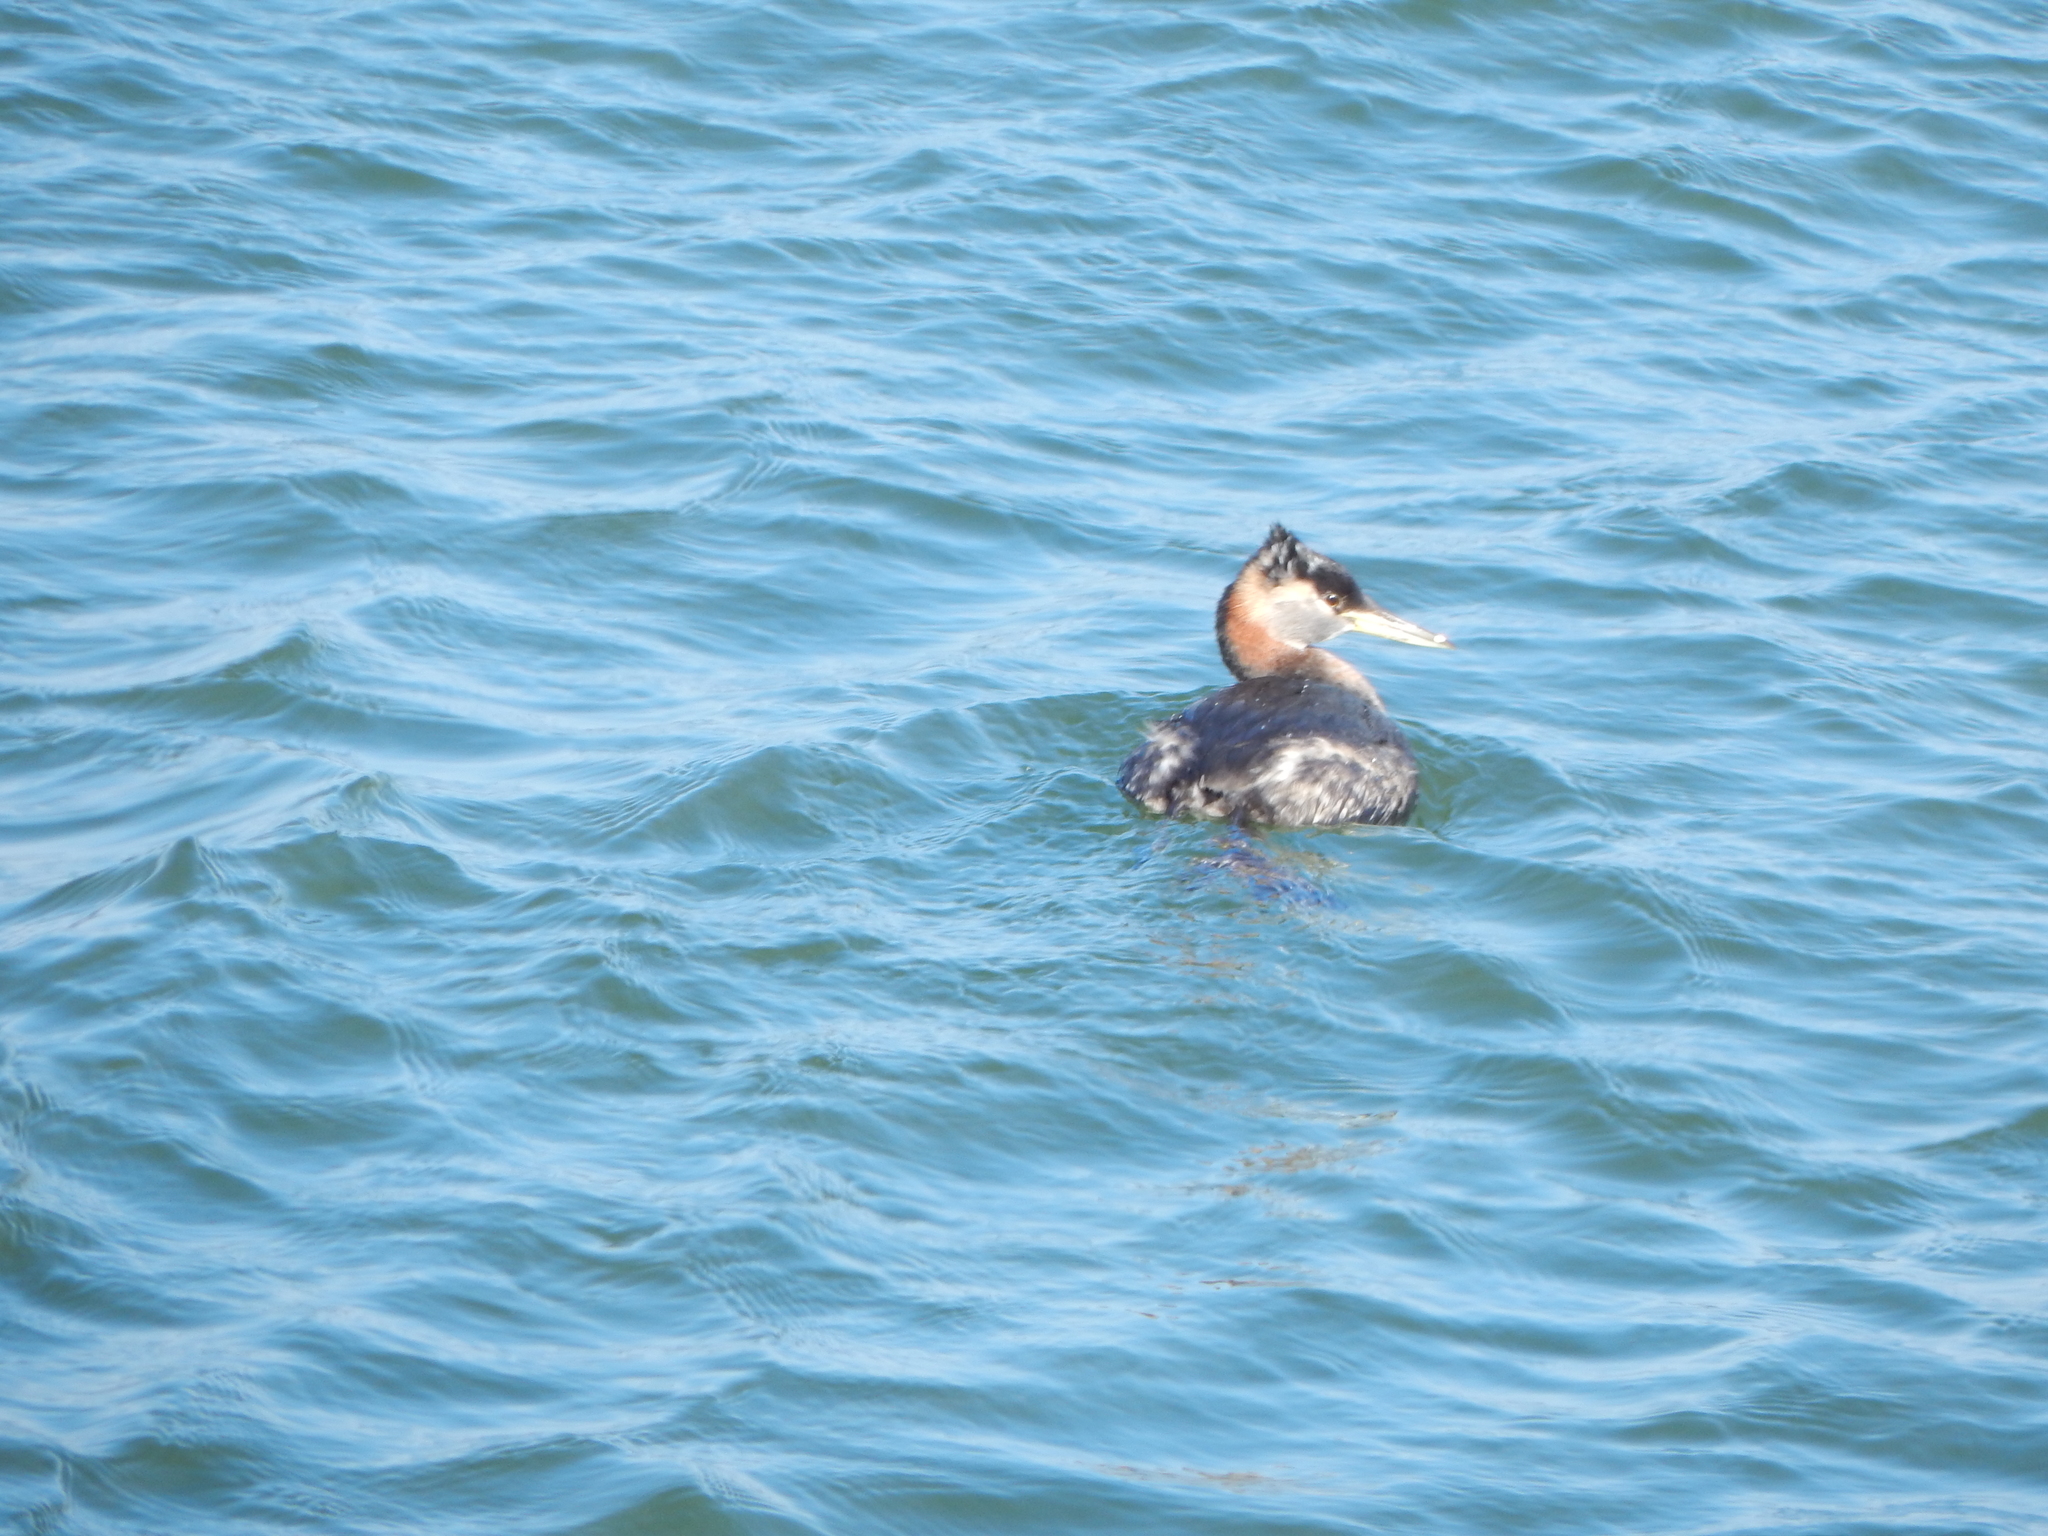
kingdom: Animalia
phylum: Chordata
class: Aves
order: Podicipediformes
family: Podicipedidae
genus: Podiceps
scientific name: Podiceps grisegena
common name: Red-necked grebe
